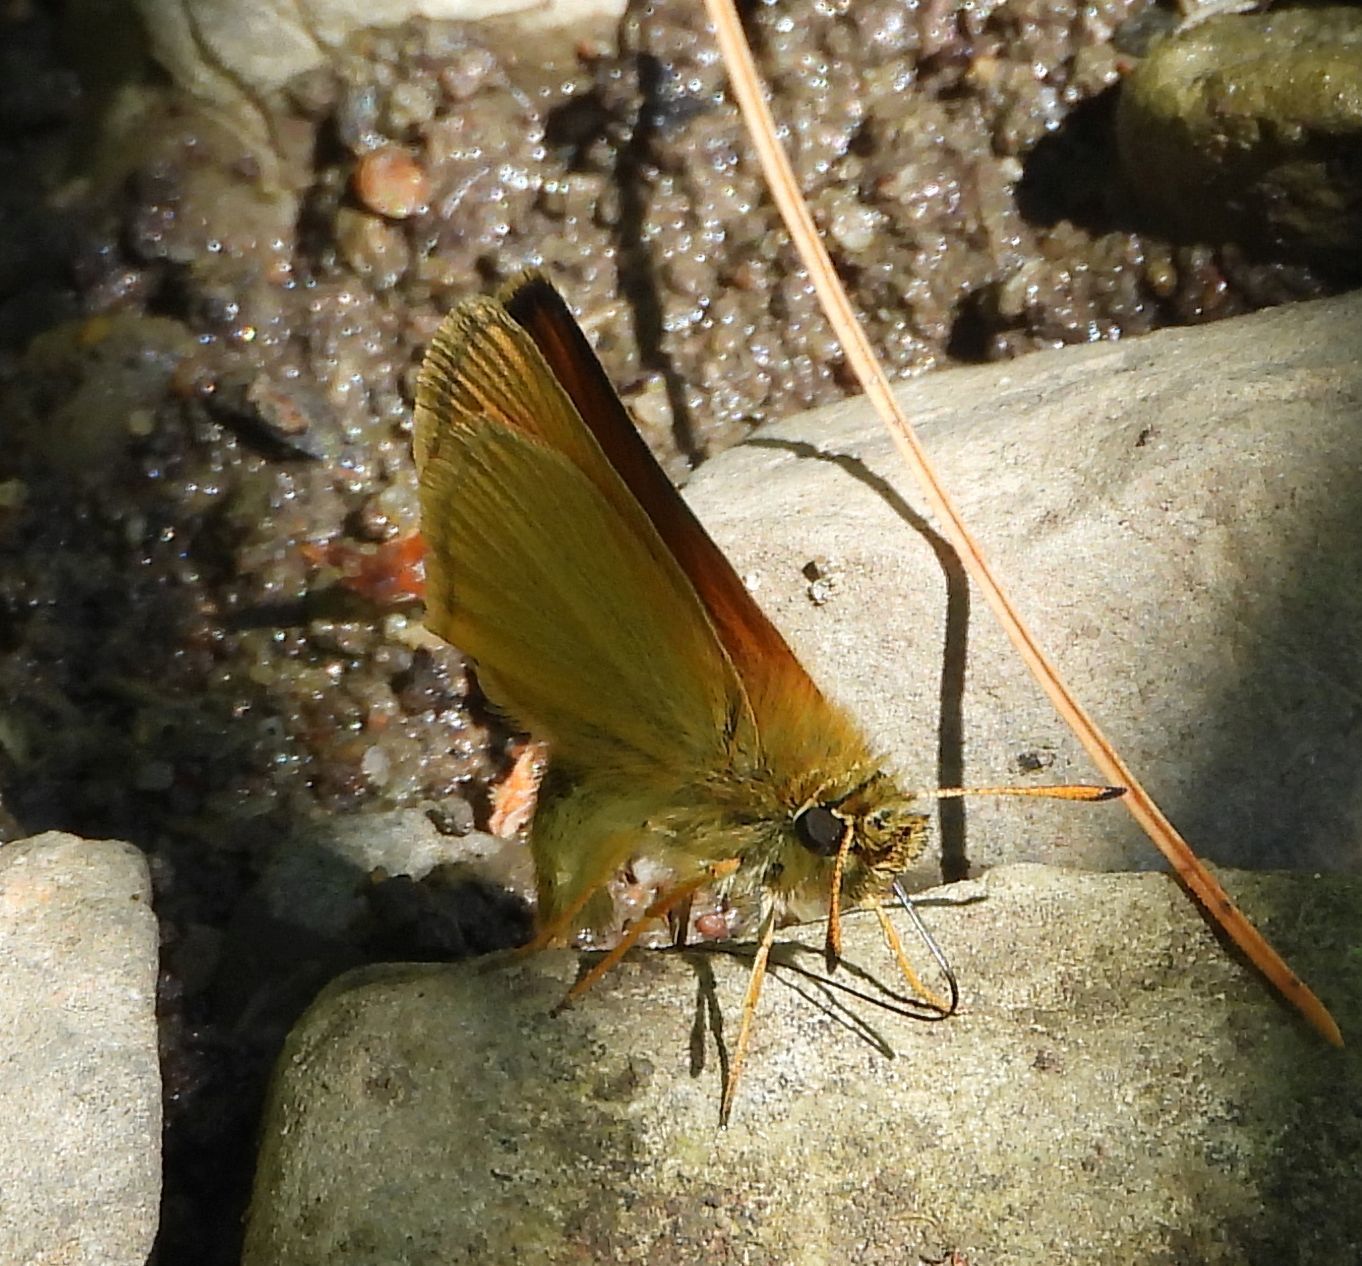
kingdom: Animalia
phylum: Arthropoda
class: Insecta
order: Lepidoptera
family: Hesperiidae
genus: Thymelicus
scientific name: Thymelicus lineola
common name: Essex skipper
